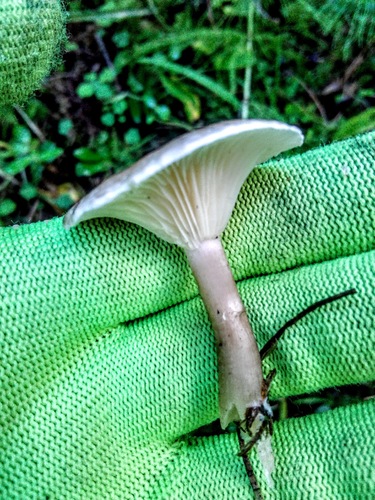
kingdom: Fungi
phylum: Basidiomycota
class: Agaricomycetes
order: Agaricales
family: Hygrophoraceae
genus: Ampulloclitocybe
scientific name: Ampulloclitocybe clavipes
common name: Club foot
